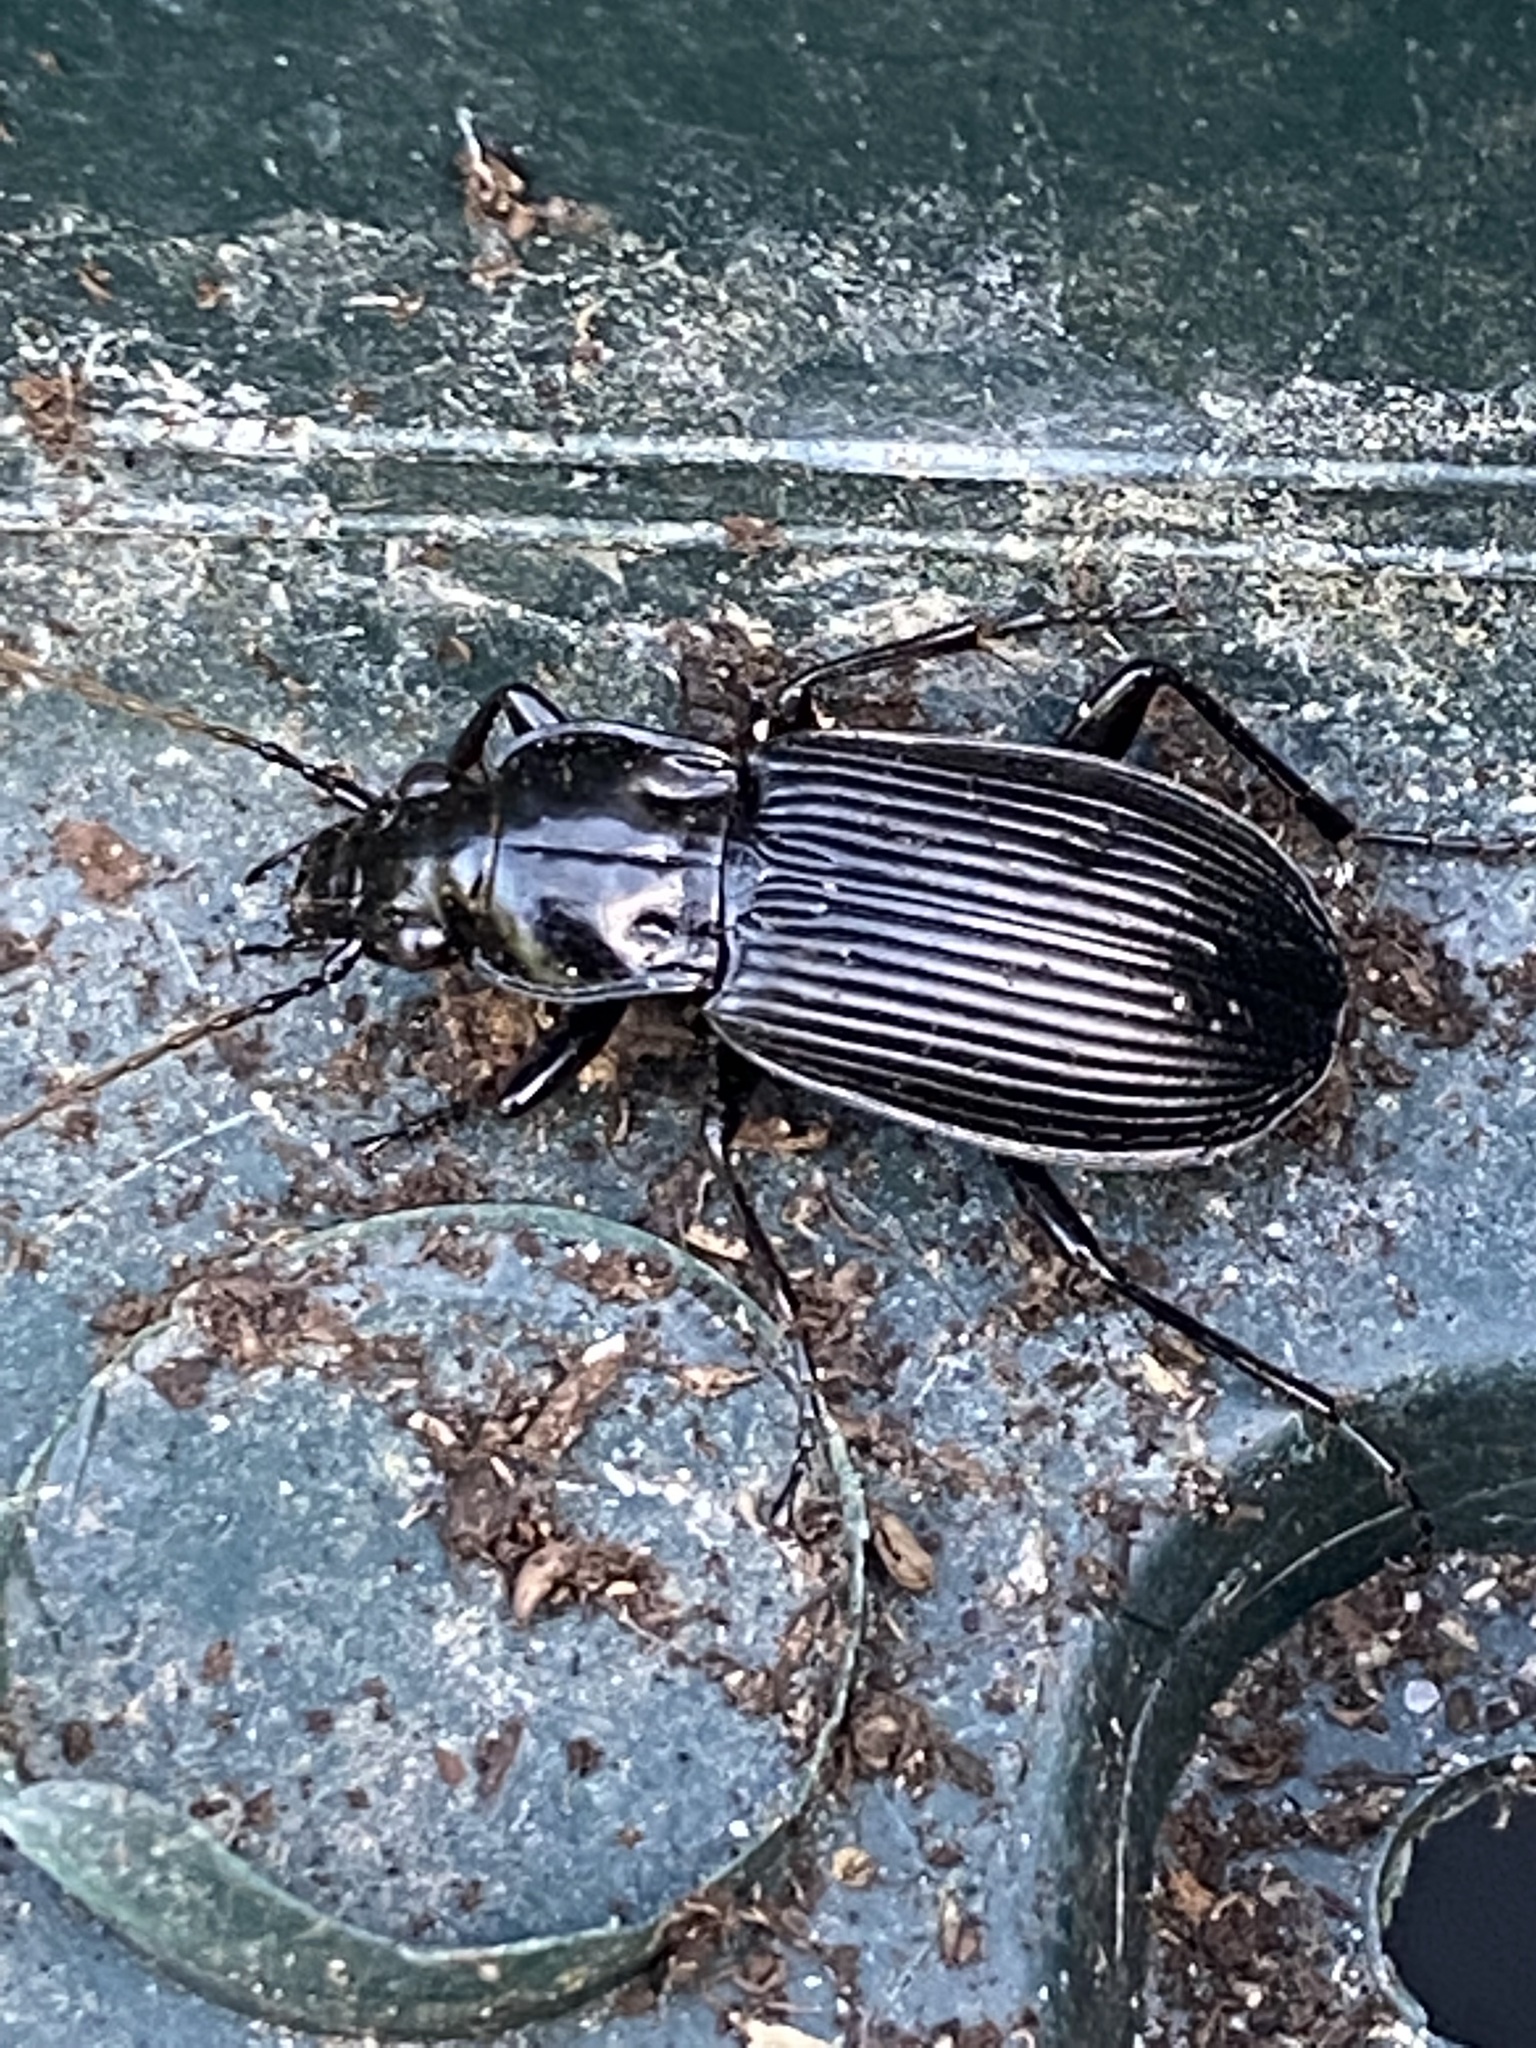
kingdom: Animalia
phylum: Arthropoda
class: Insecta
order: Coleoptera
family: Carabidae
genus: Pterostichus
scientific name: Pterostichus niger
